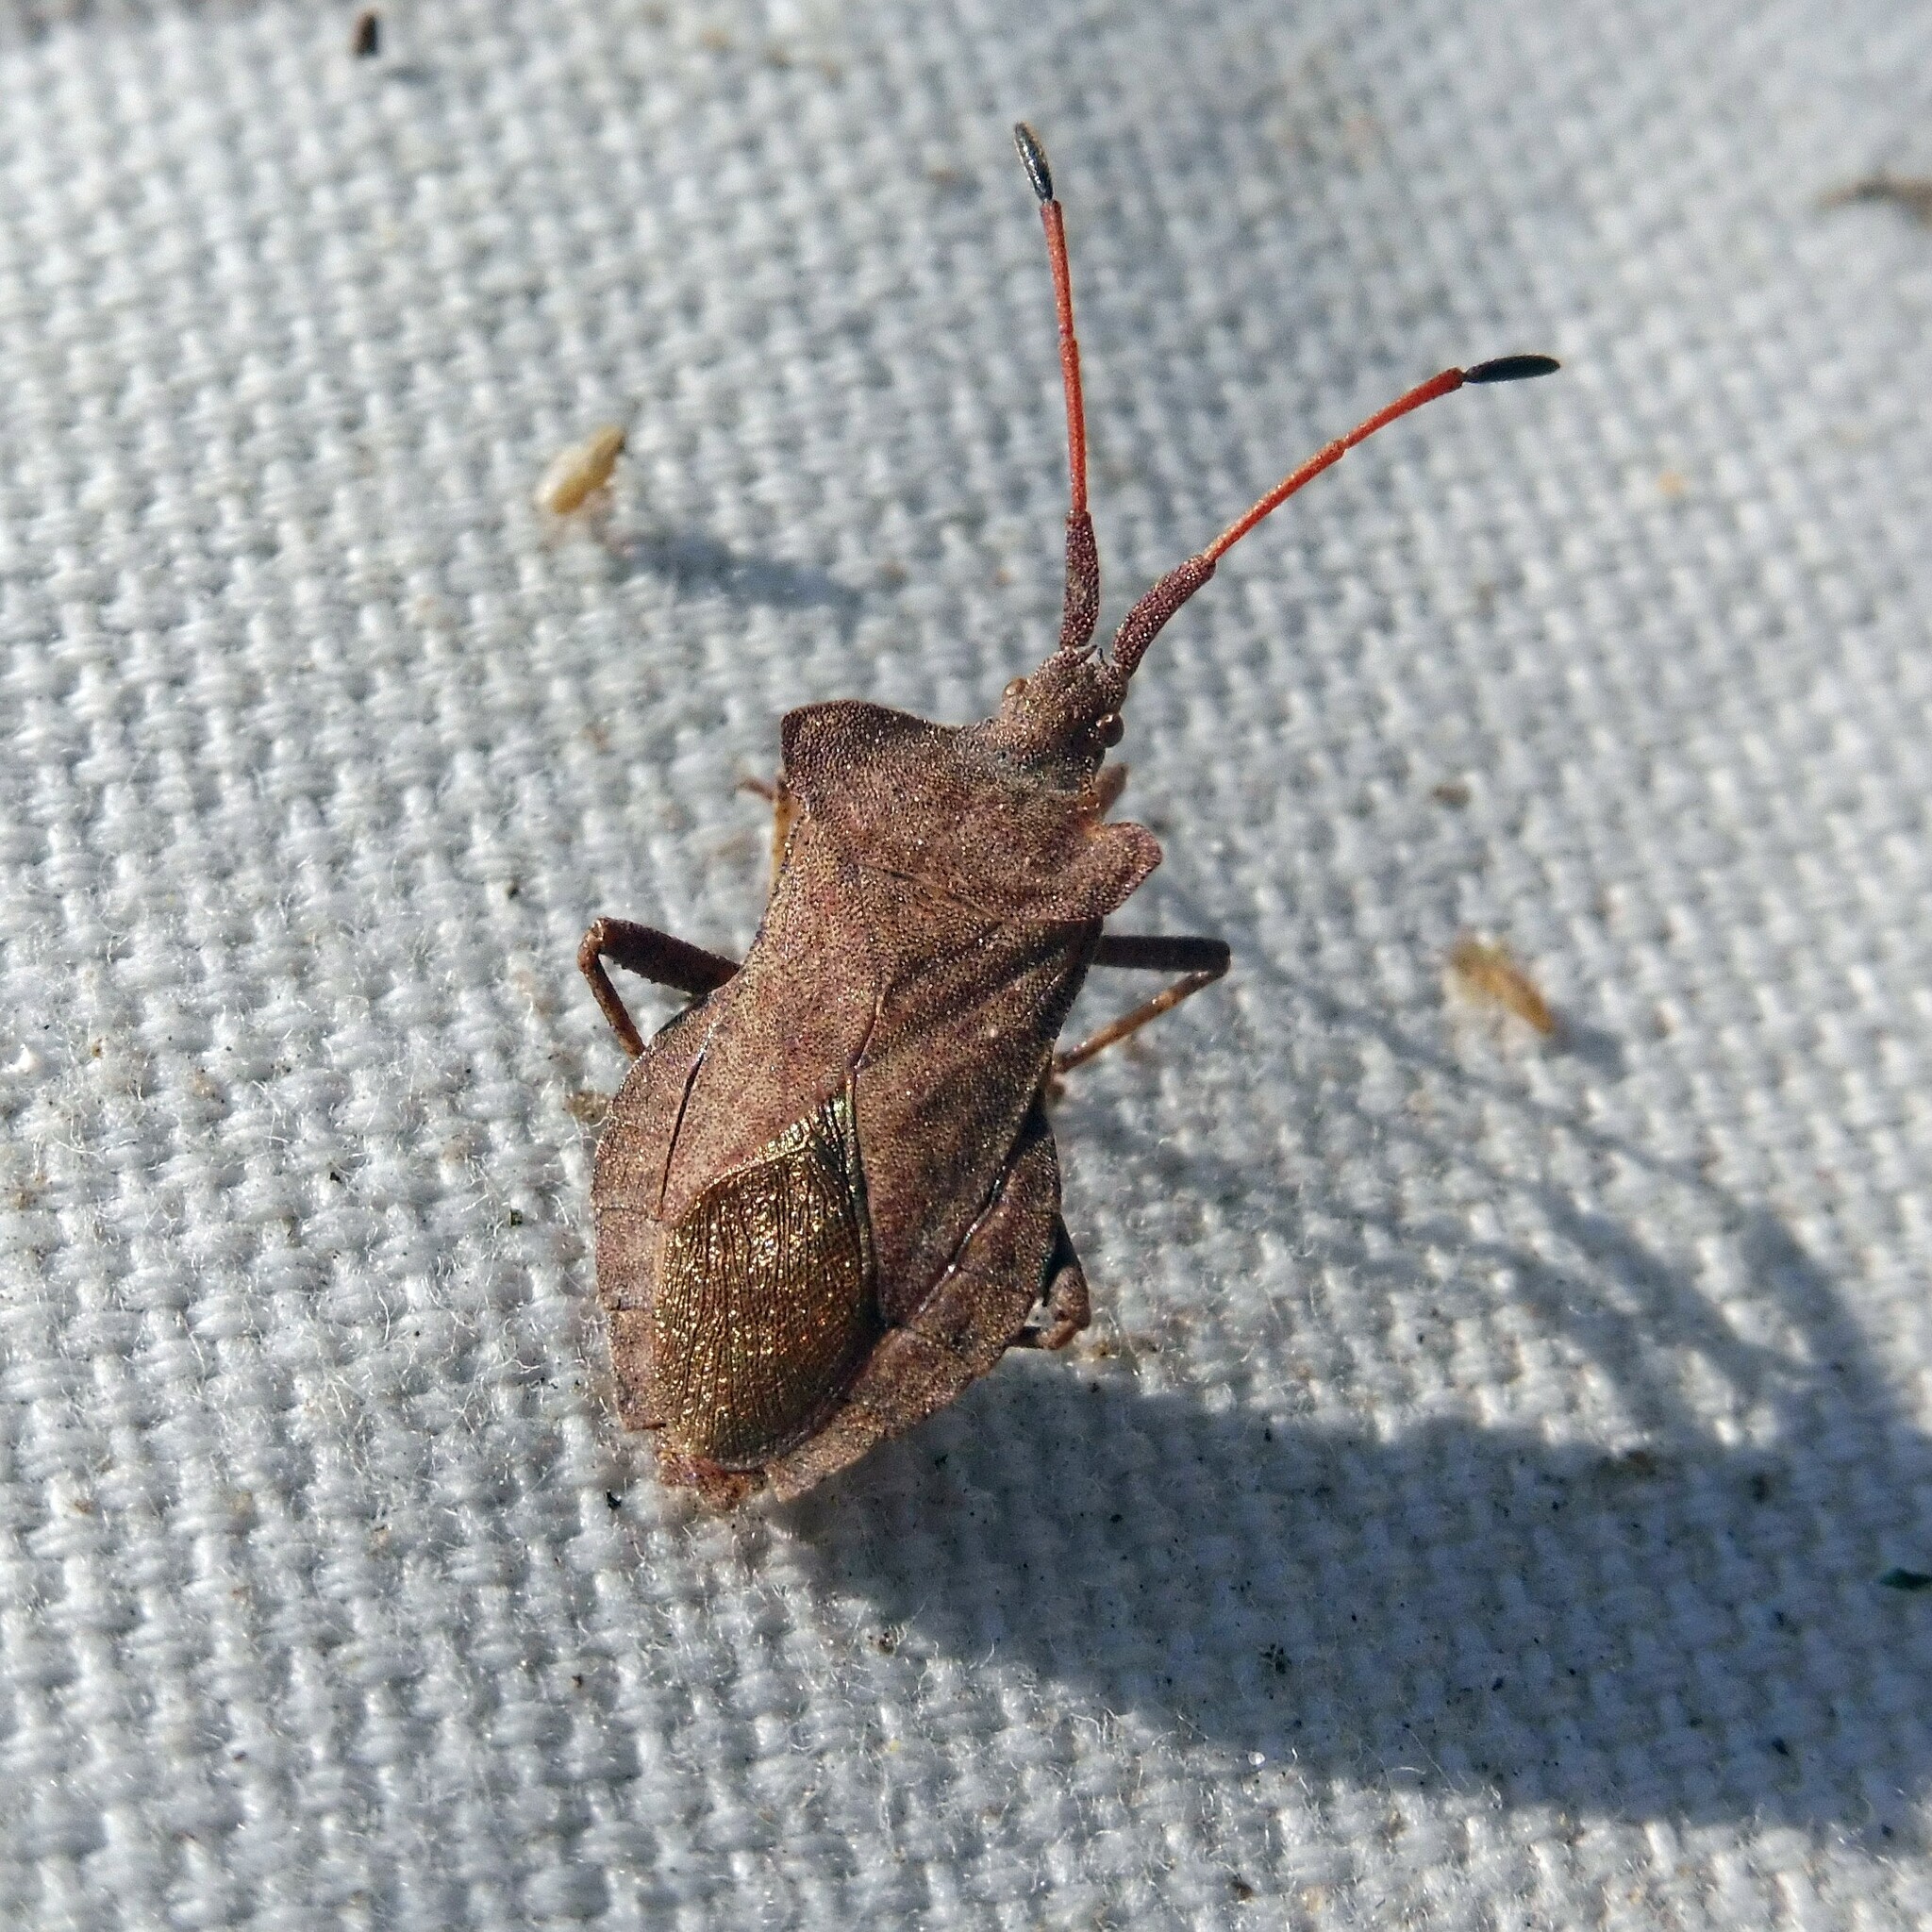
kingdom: Animalia
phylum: Arthropoda
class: Insecta
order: Hemiptera
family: Coreidae
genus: Coreus
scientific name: Coreus marginatus
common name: Dock bug
